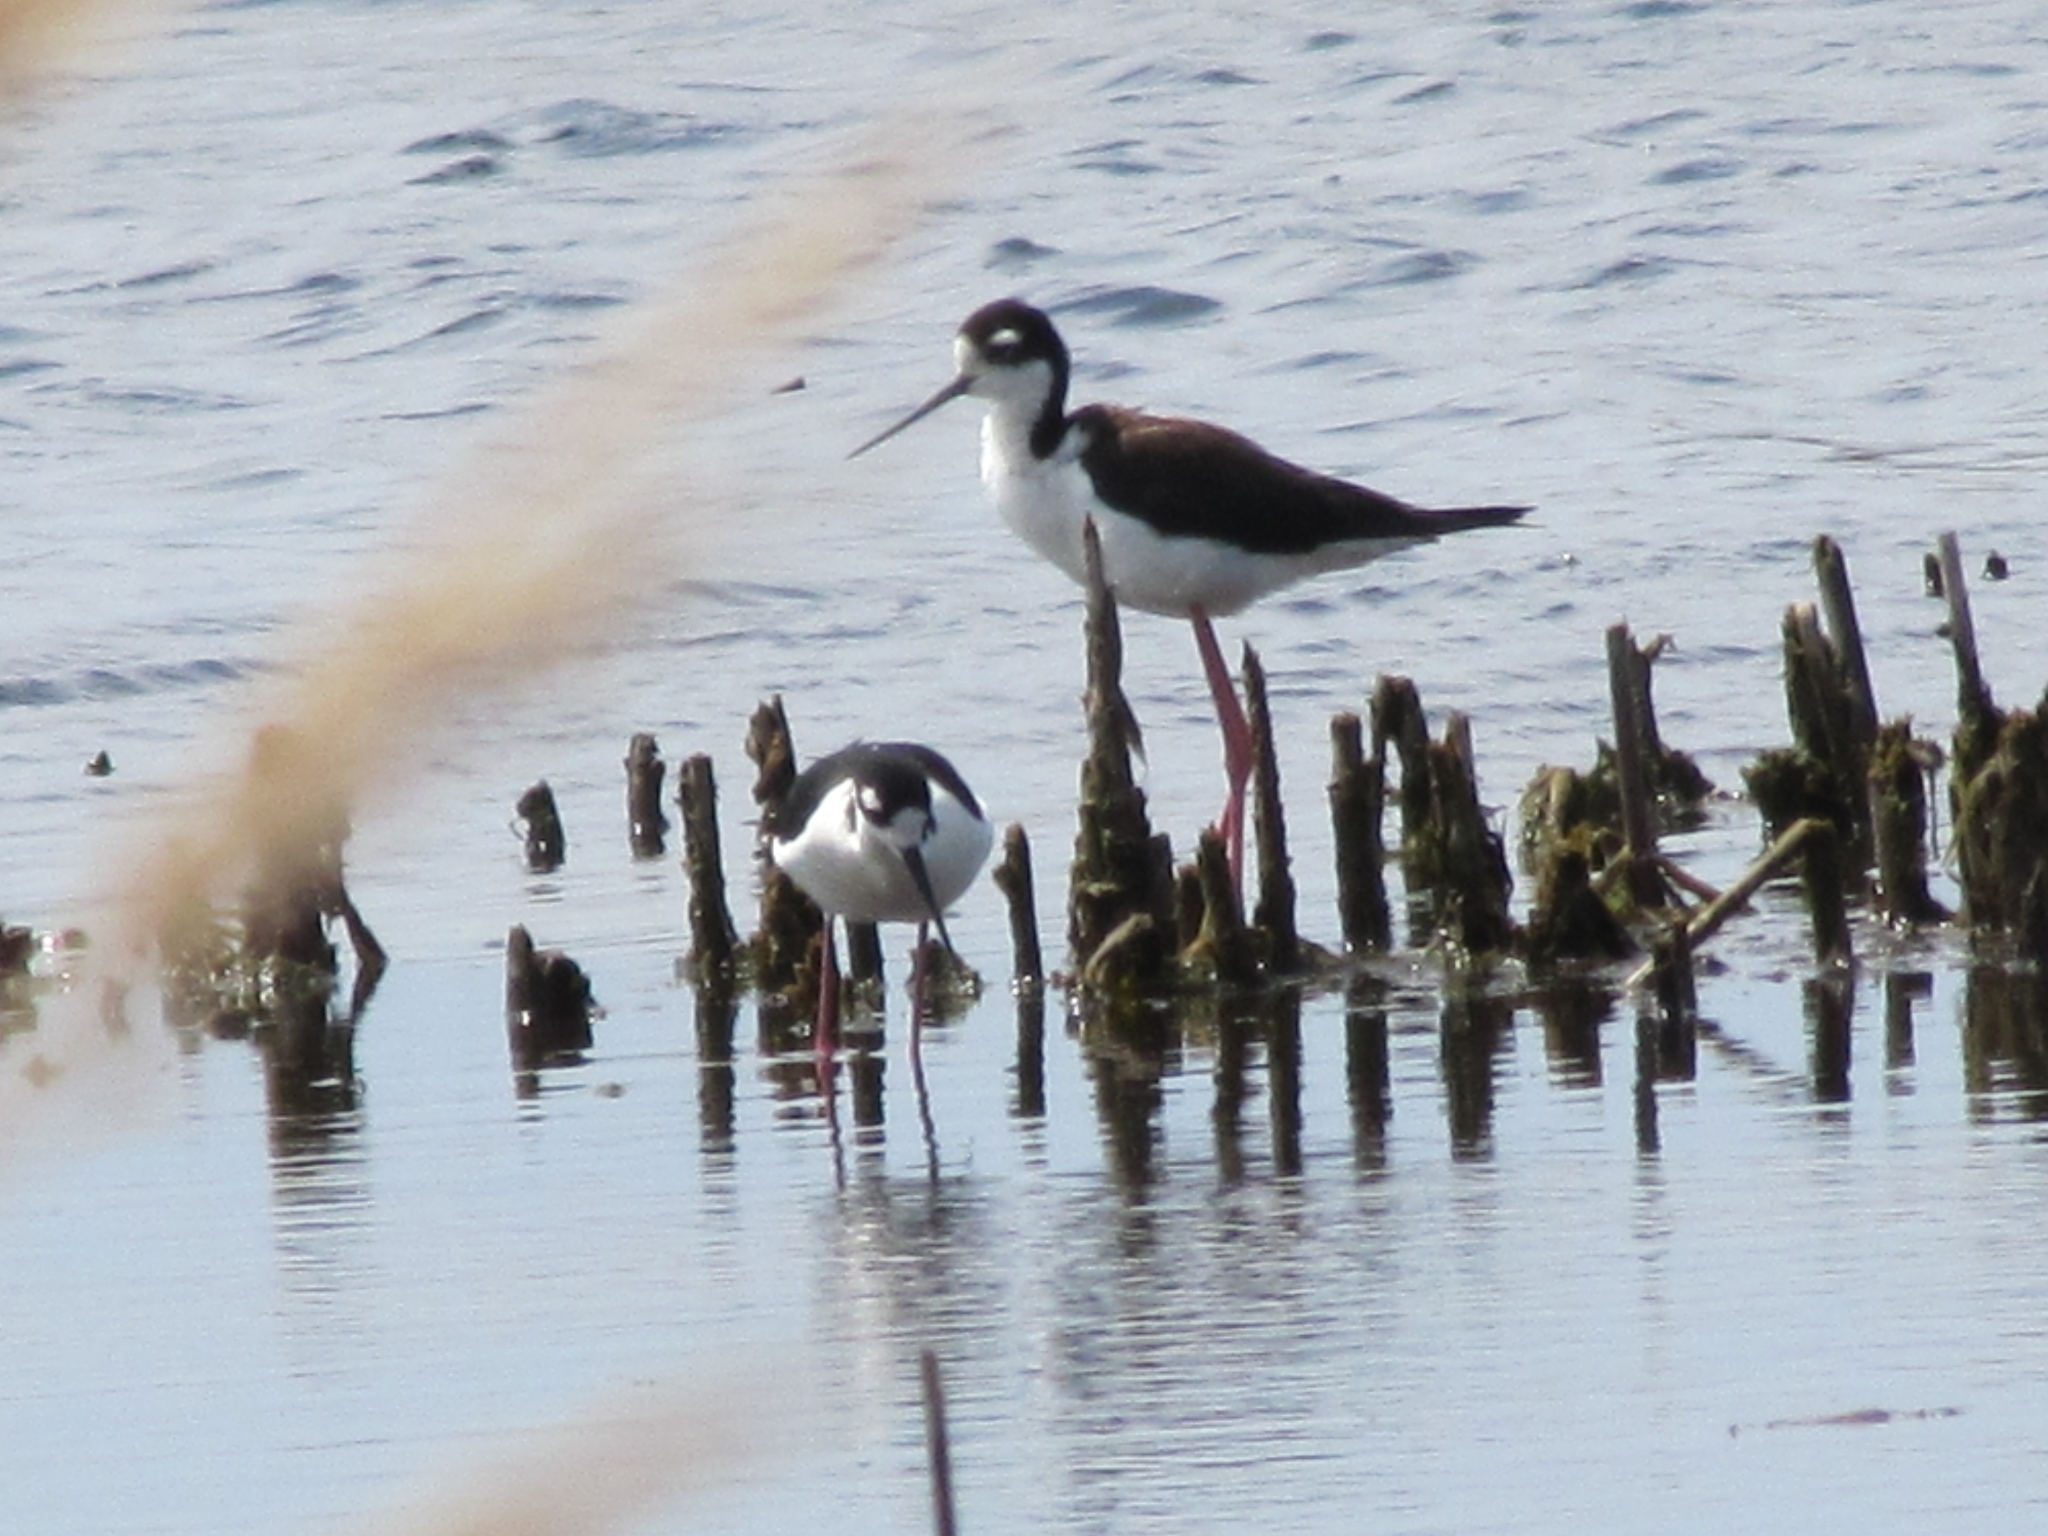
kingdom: Animalia
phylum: Chordata
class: Aves
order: Charadriiformes
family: Recurvirostridae
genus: Himantopus
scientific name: Himantopus mexicanus
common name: Black-necked stilt
